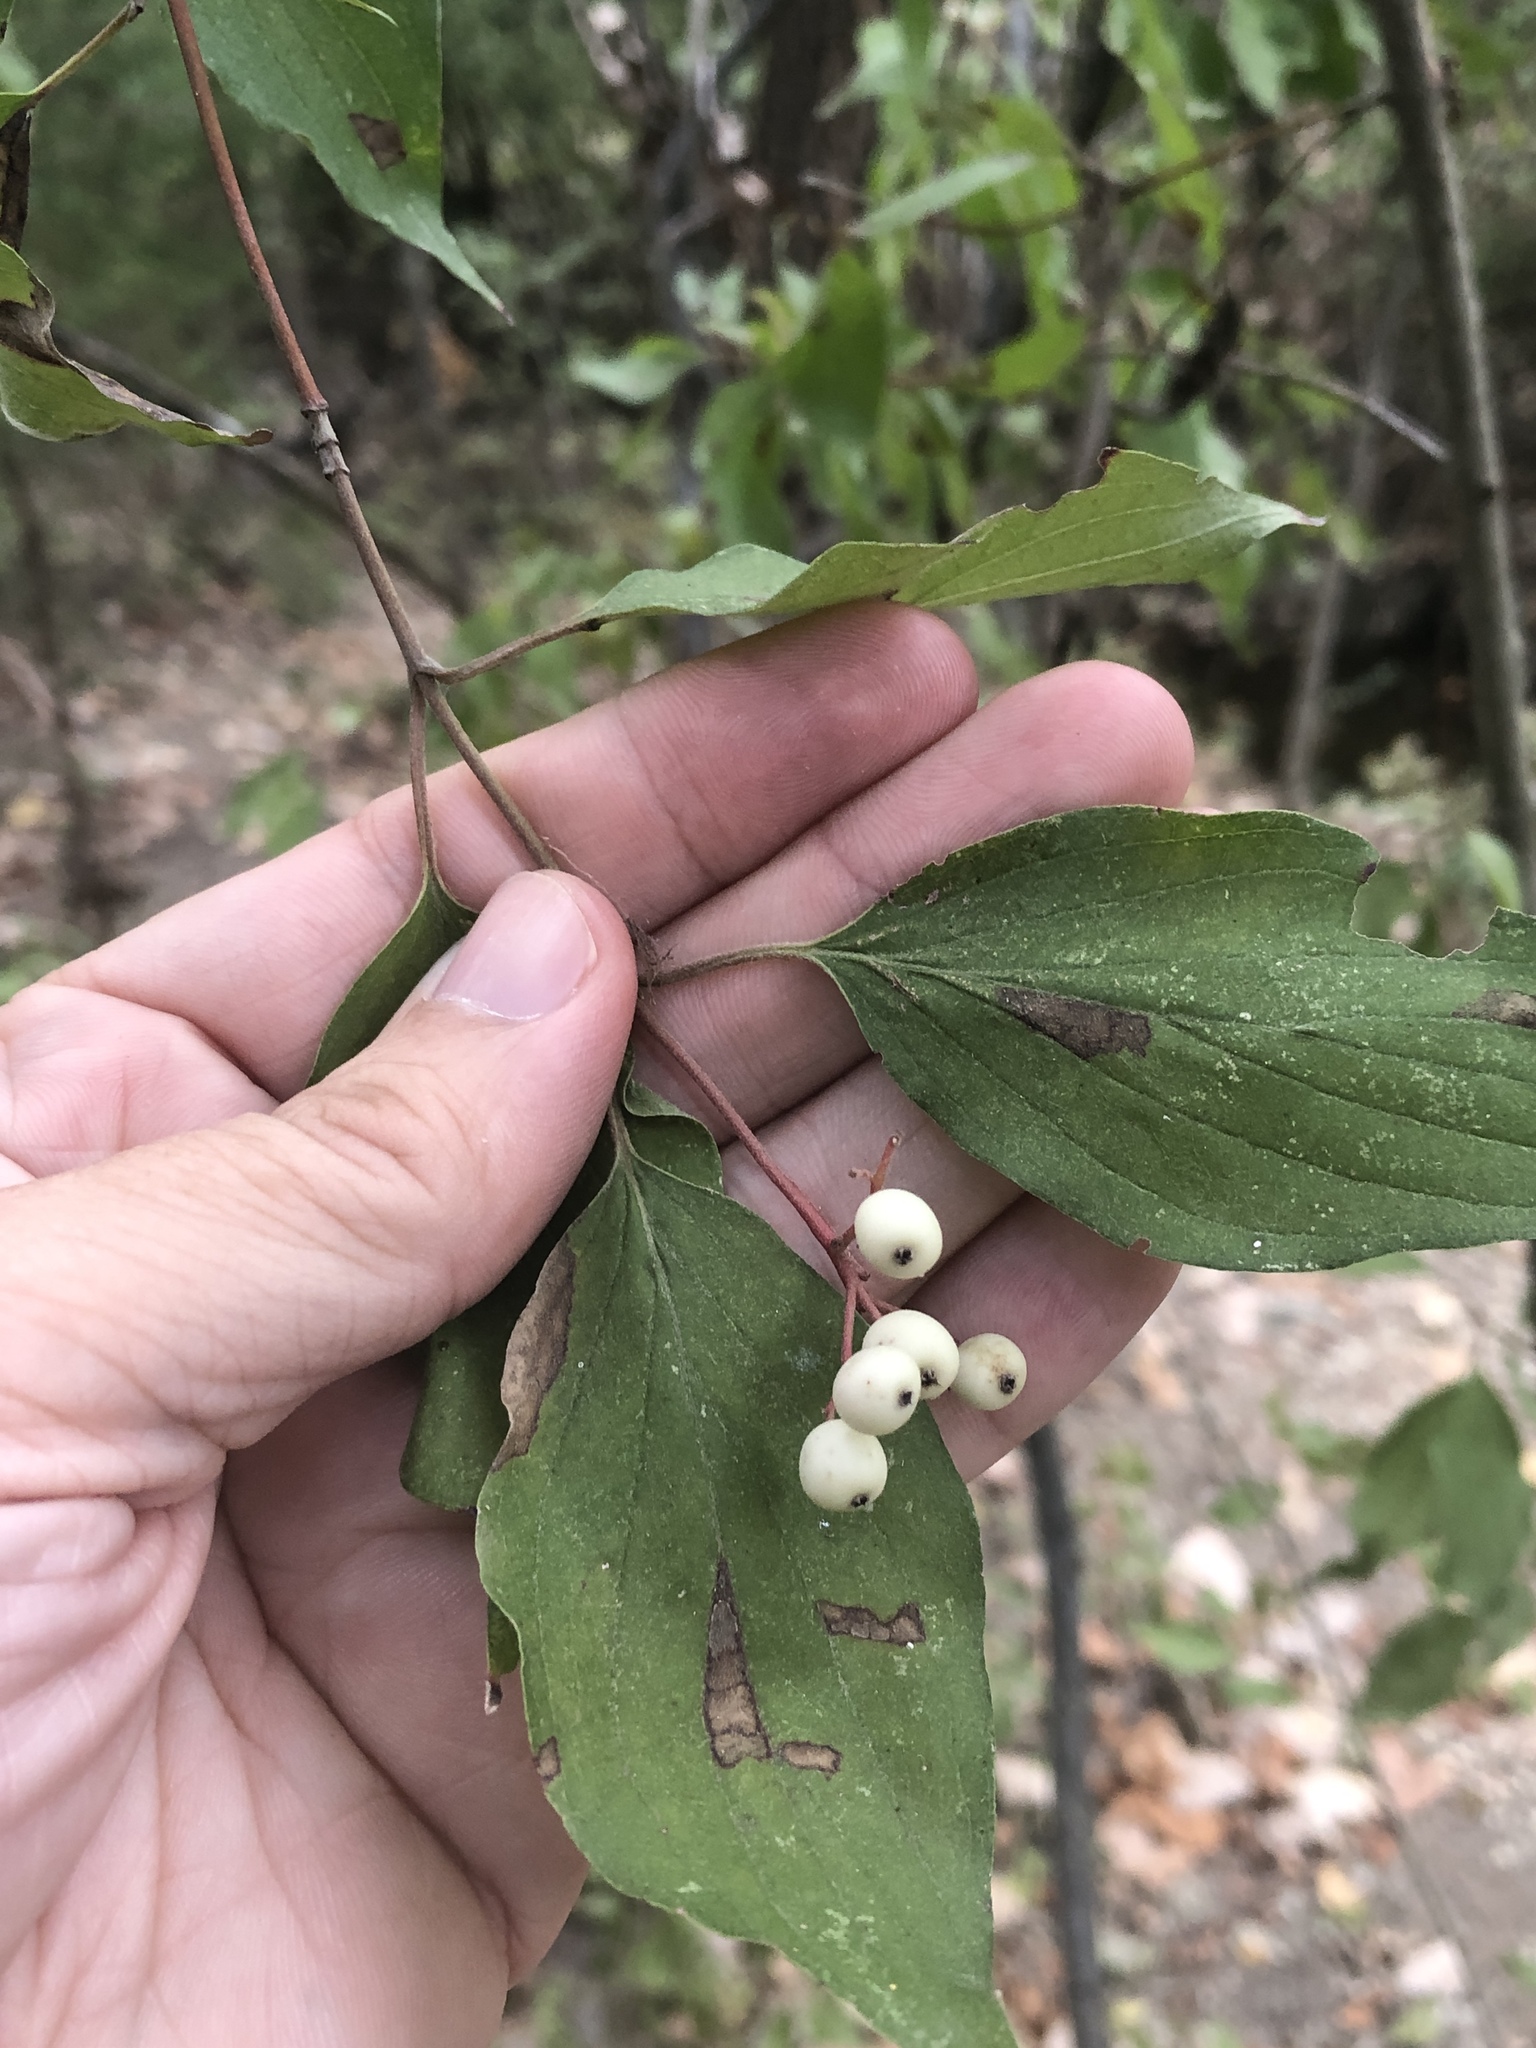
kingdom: Plantae
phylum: Tracheophyta
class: Magnoliopsida
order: Cornales
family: Cornaceae
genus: Cornus
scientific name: Cornus drummondii
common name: Rough-leaf dogwood
